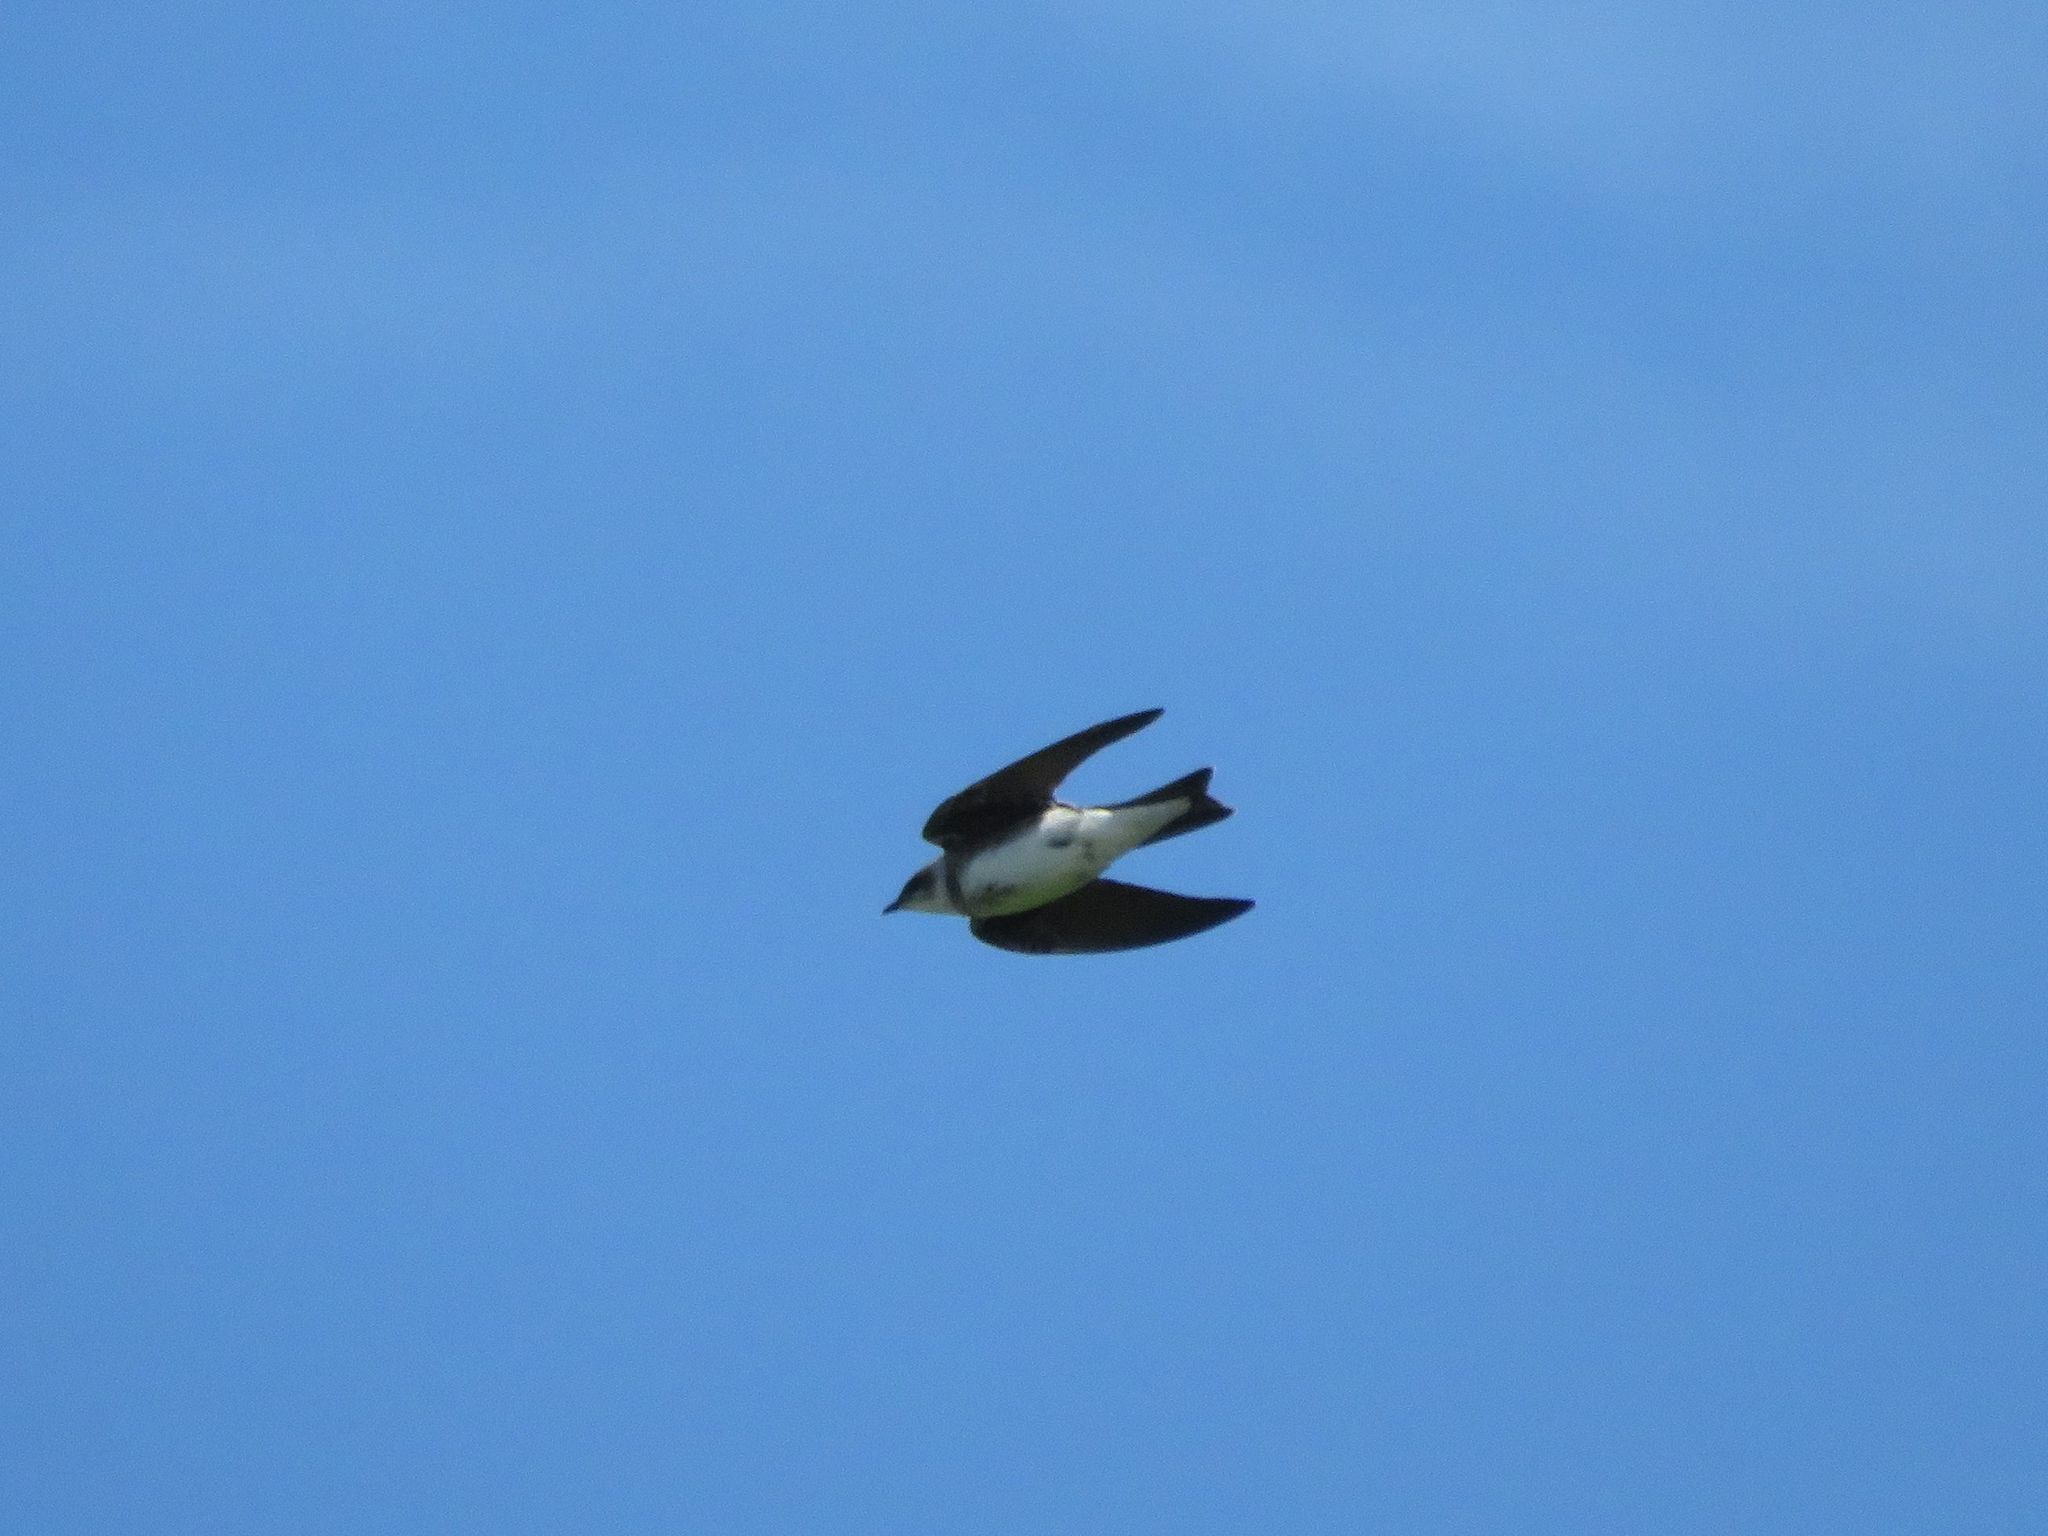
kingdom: Animalia
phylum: Chordata
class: Aves
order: Passeriformes
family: Hirundinidae
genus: Progne
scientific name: Progne tapera
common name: Brown-chested martin
